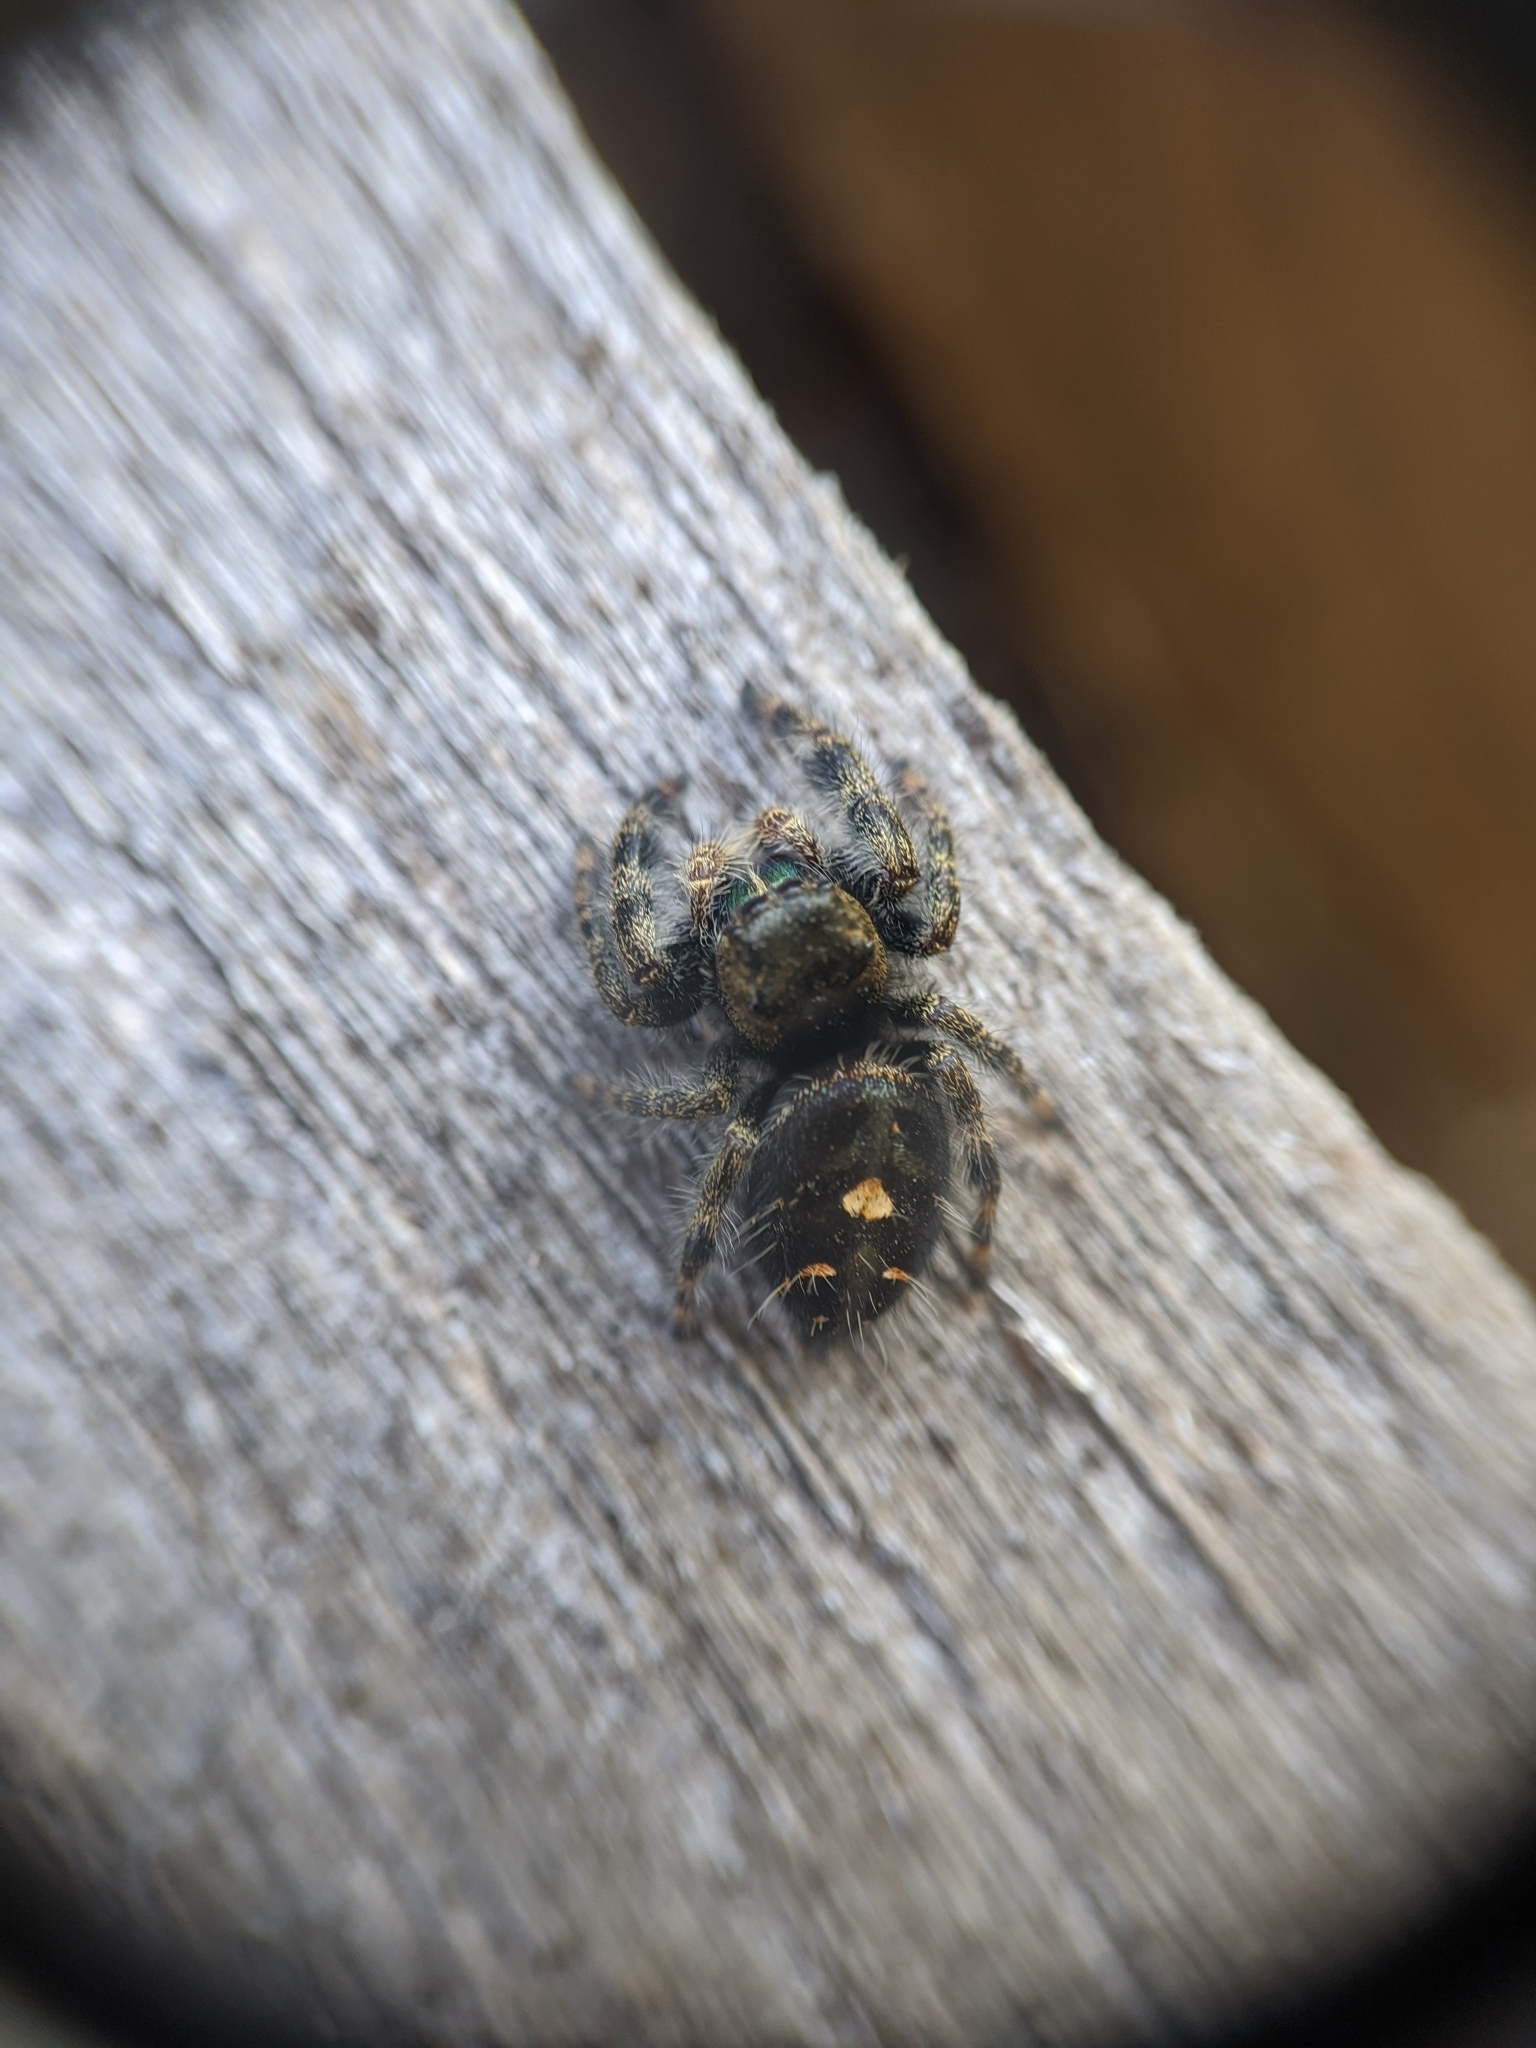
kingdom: Animalia
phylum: Arthropoda
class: Arachnida
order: Araneae
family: Salticidae
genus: Phidippus
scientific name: Phidippus audax
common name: Bold jumper
